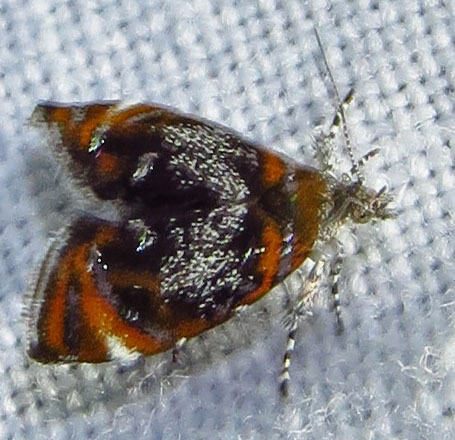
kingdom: Animalia
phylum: Arthropoda
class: Insecta
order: Lepidoptera
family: Choreutidae
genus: Prochoreutis
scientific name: Prochoreutis inflatella
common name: Skullcap skeletonizer moth
